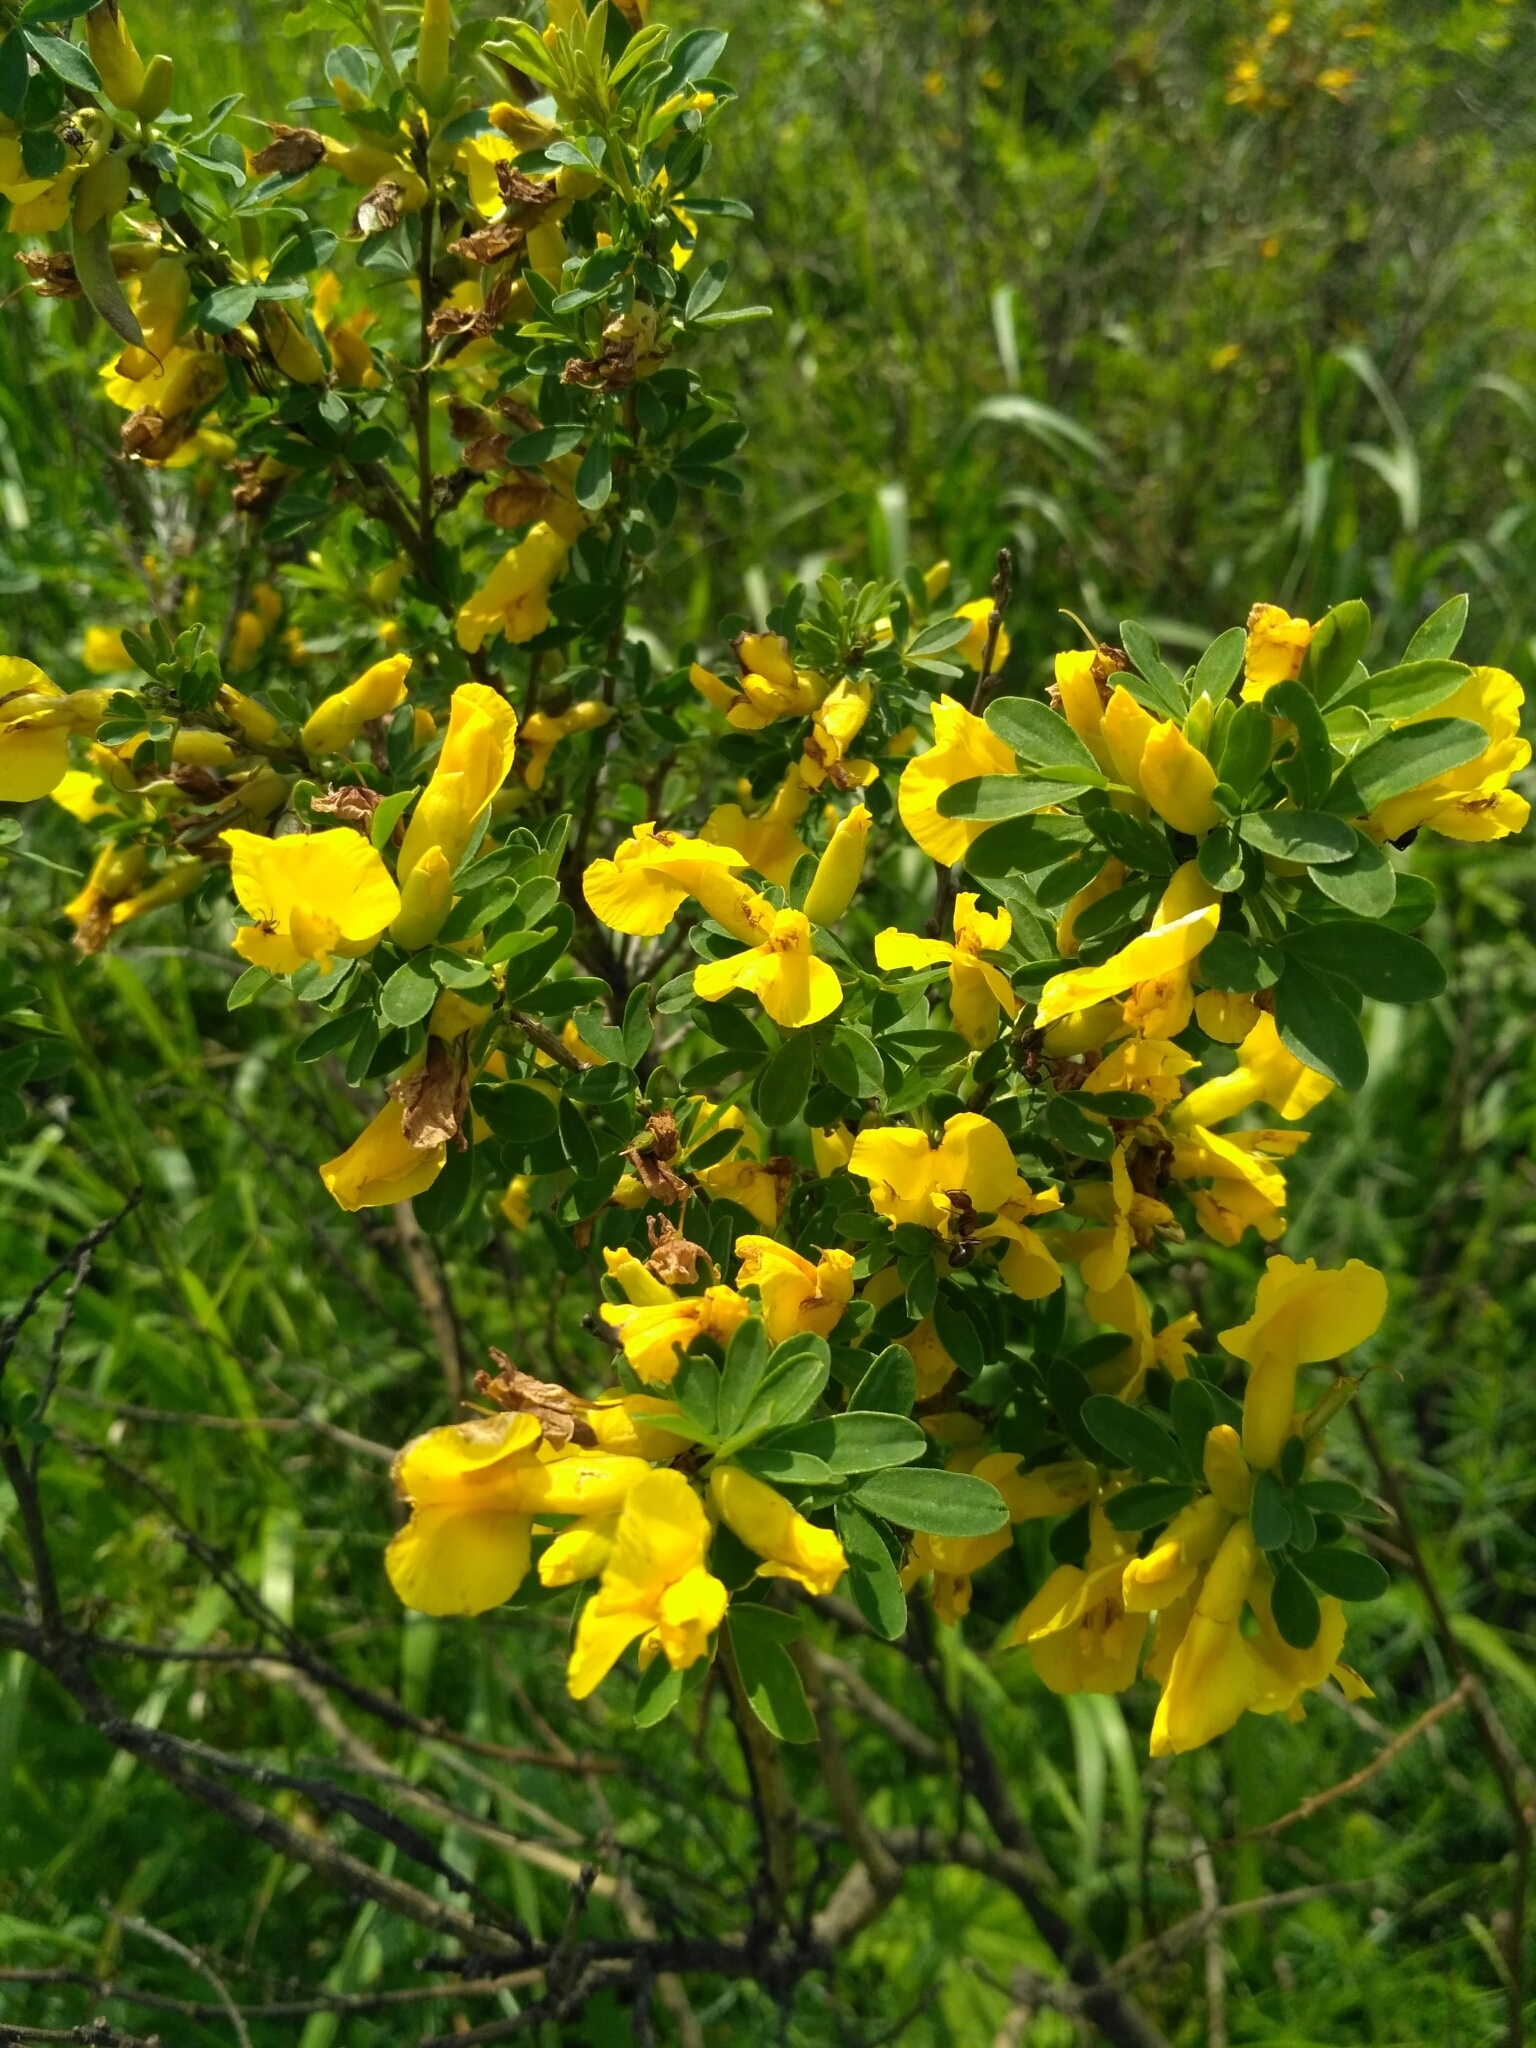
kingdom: Plantae
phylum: Tracheophyta
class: Magnoliopsida
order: Fabales
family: Fabaceae
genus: Chamaecytisus
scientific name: Chamaecytisus ruthenicus
